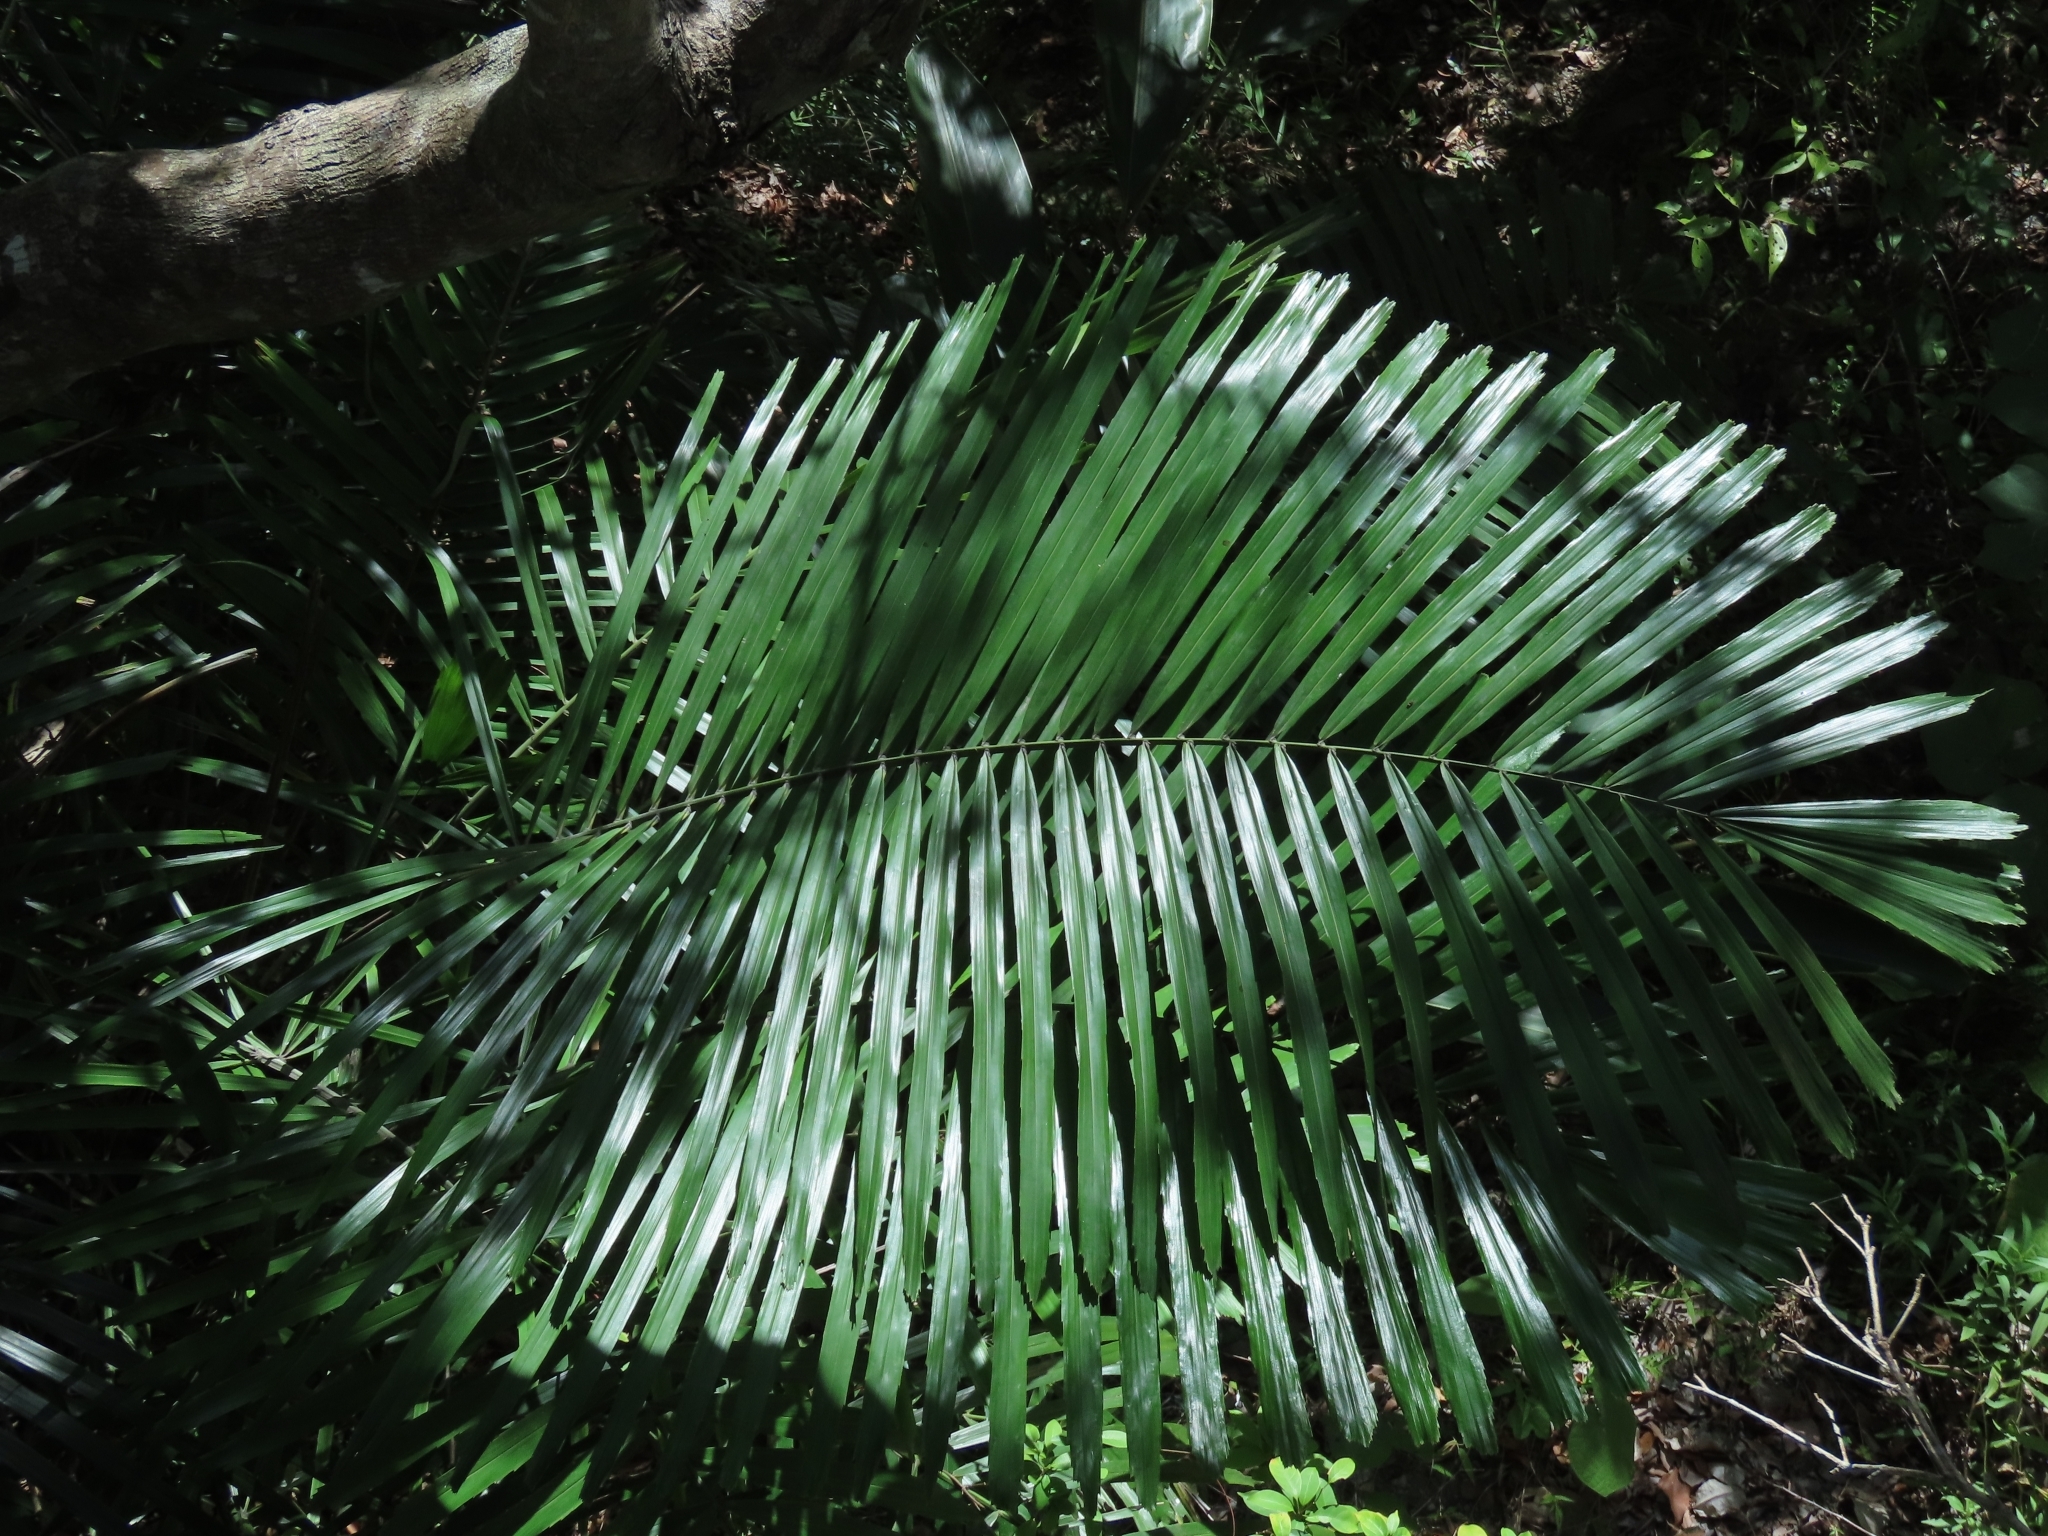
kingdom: Plantae
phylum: Tracheophyta
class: Liliopsida
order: Arecales
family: Arecaceae
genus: Arenga
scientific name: Arenga engleri
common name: Formosan sugar palm
